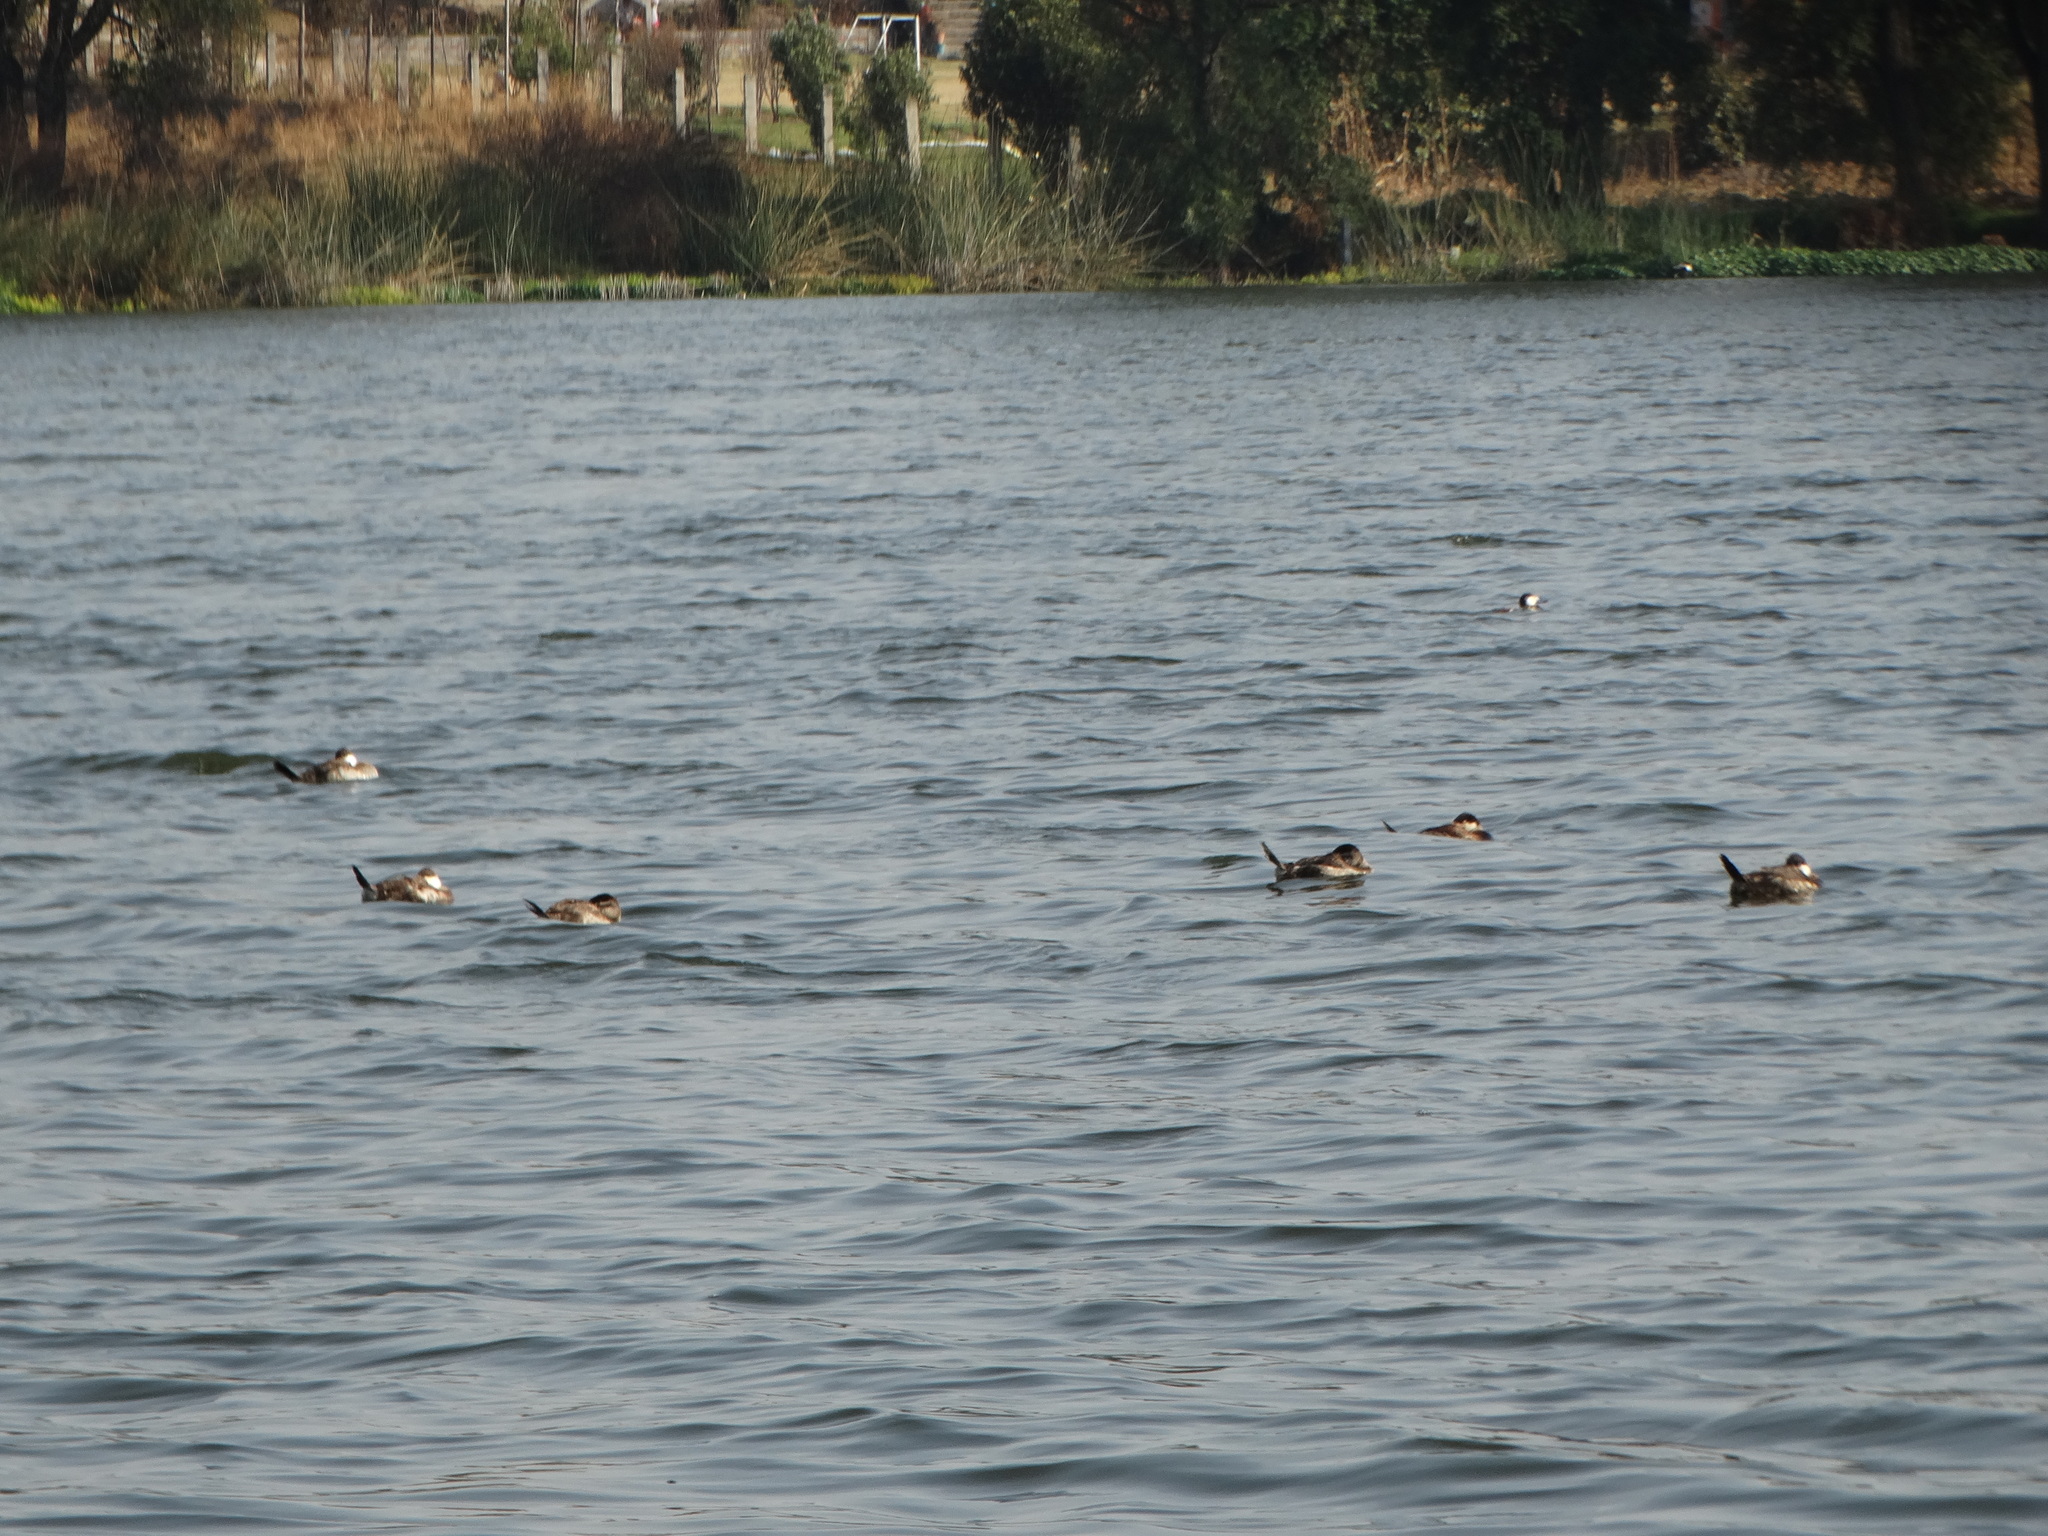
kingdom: Animalia
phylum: Chordata
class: Aves
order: Anseriformes
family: Anatidae
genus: Oxyura
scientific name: Oxyura jamaicensis
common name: Ruddy duck
